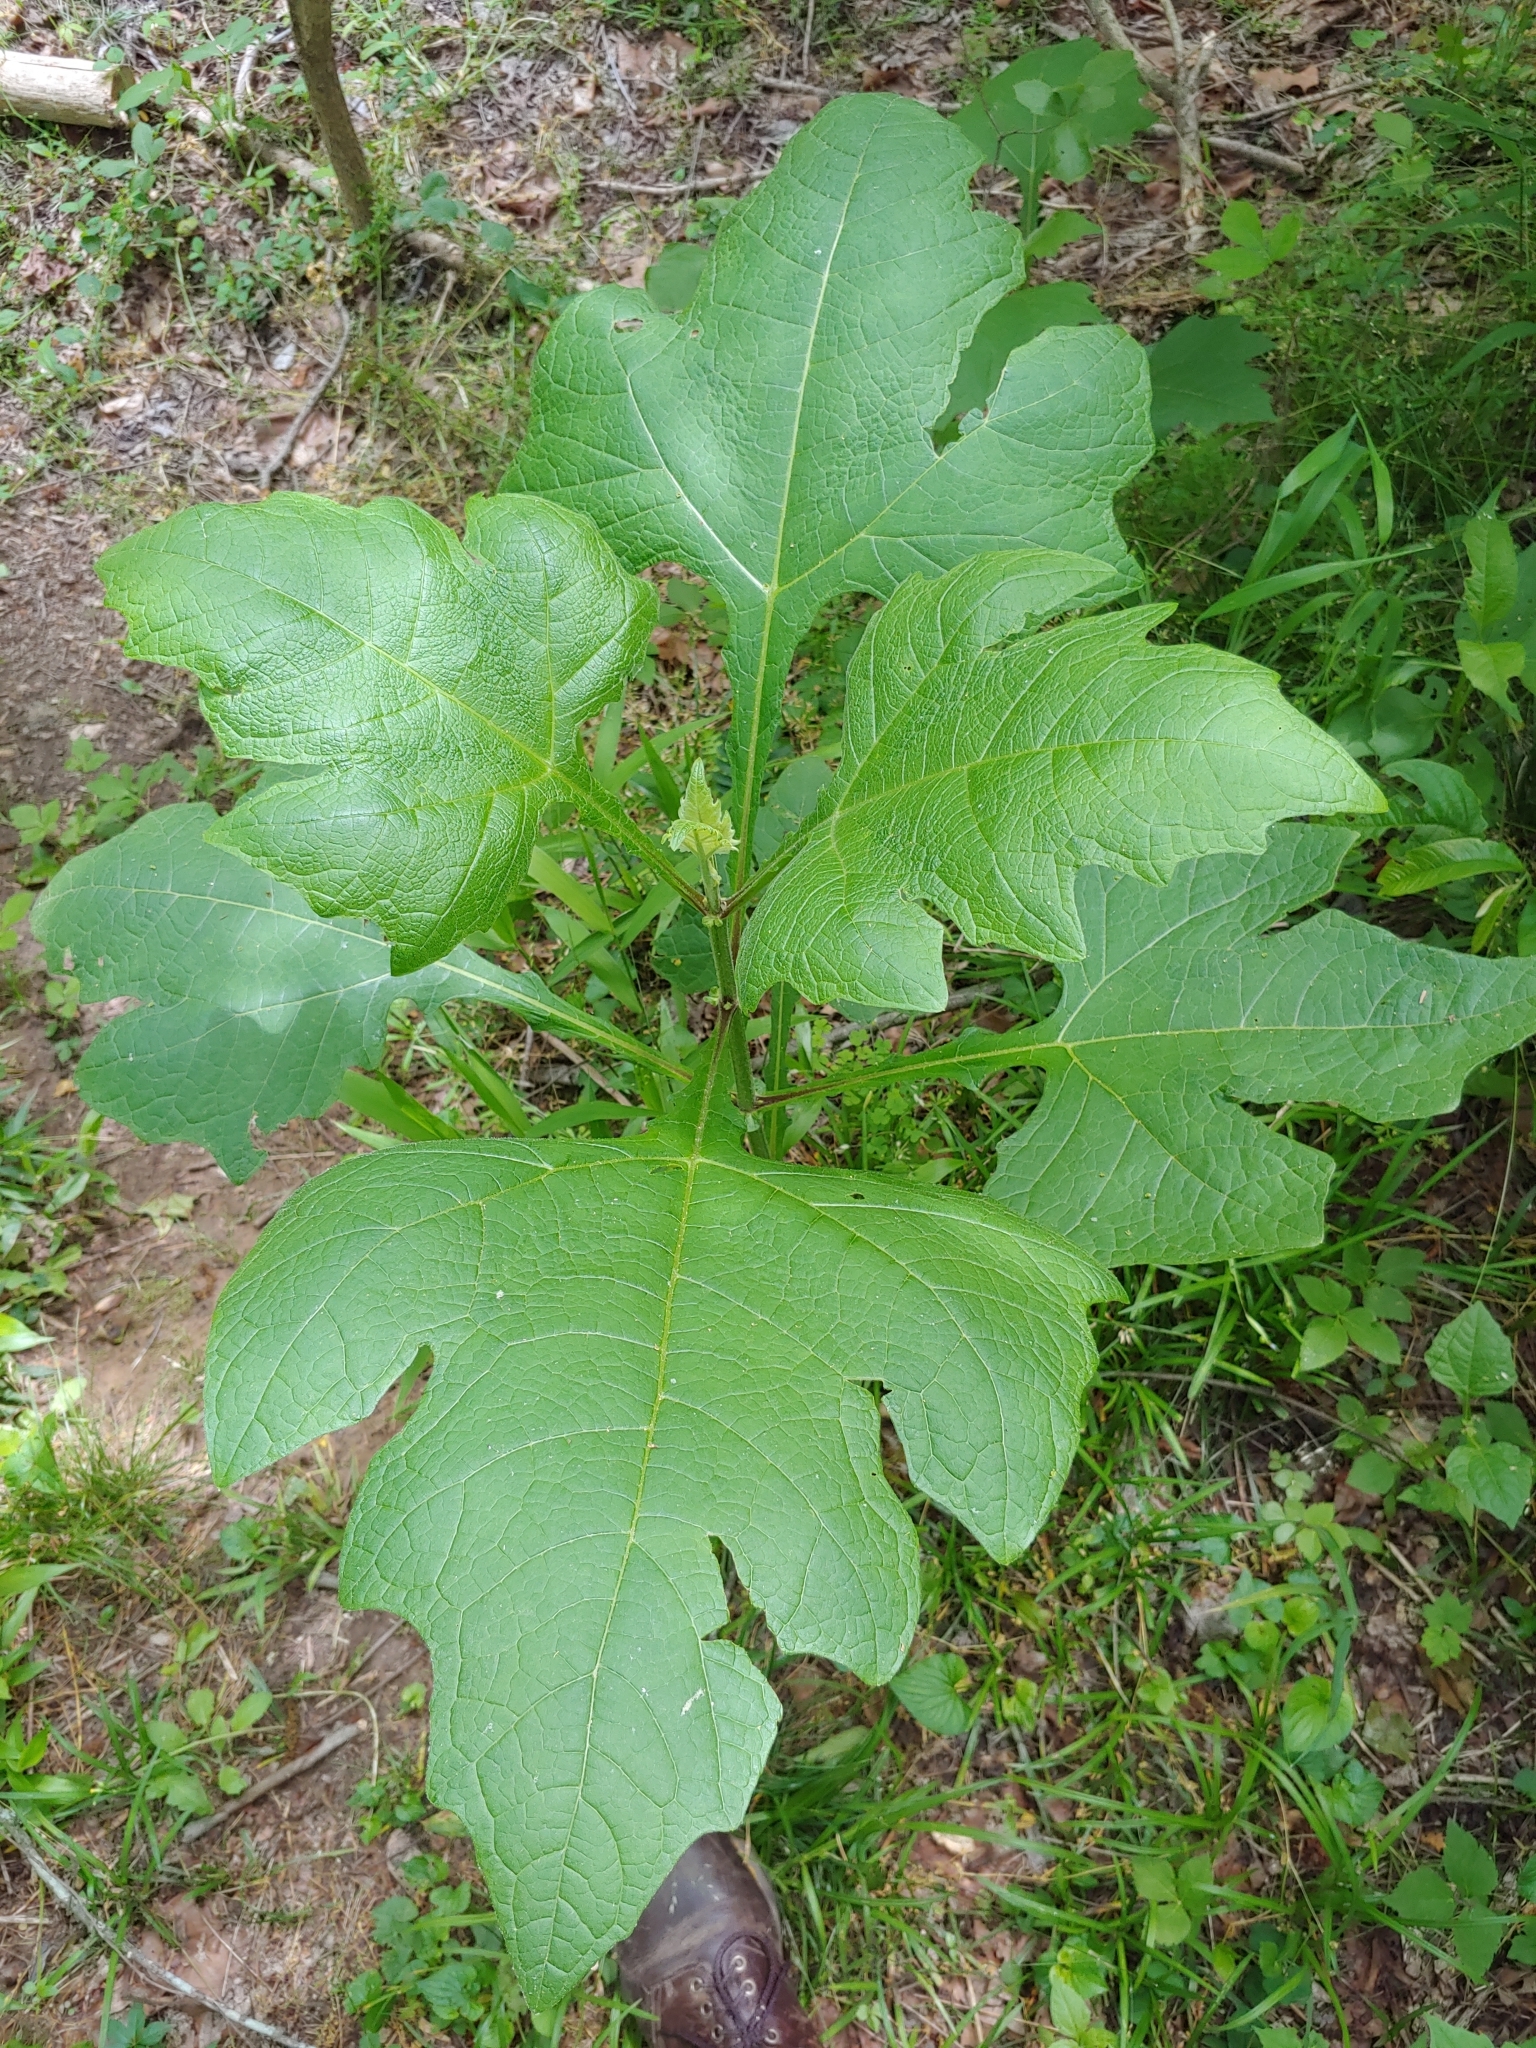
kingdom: Plantae
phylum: Tracheophyta
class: Magnoliopsida
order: Asterales
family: Asteraceae
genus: Smallanthus
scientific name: Smallanthus uvedalia
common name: Bear's-foot
